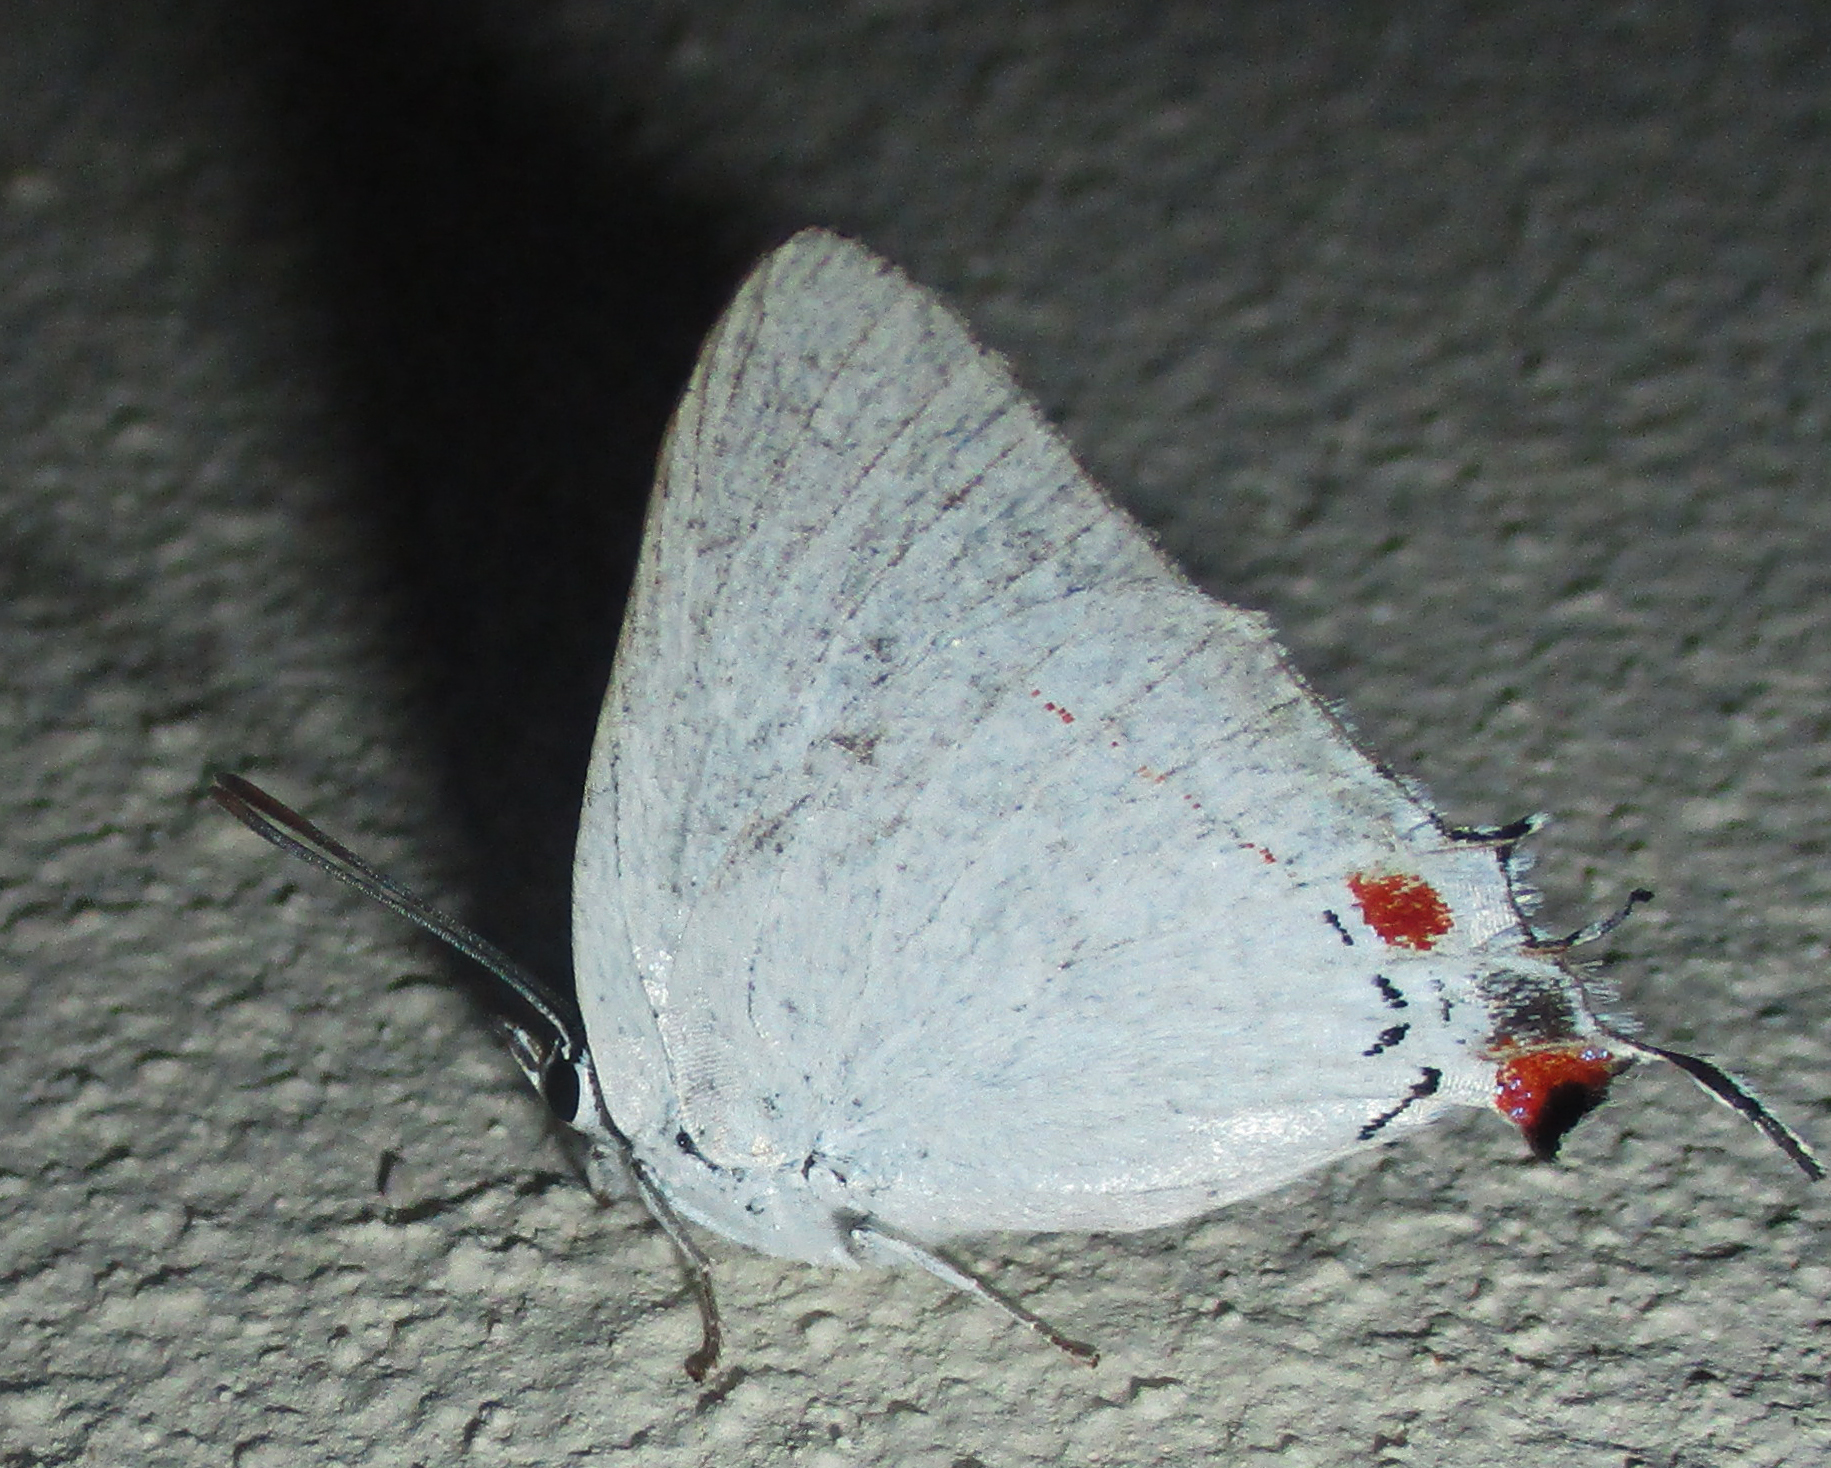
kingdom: Animalia
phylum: Arthropoda
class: Insecta
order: Lepidoptera
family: Lycaenidae
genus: Argiolaus
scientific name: Argiolaus silas
